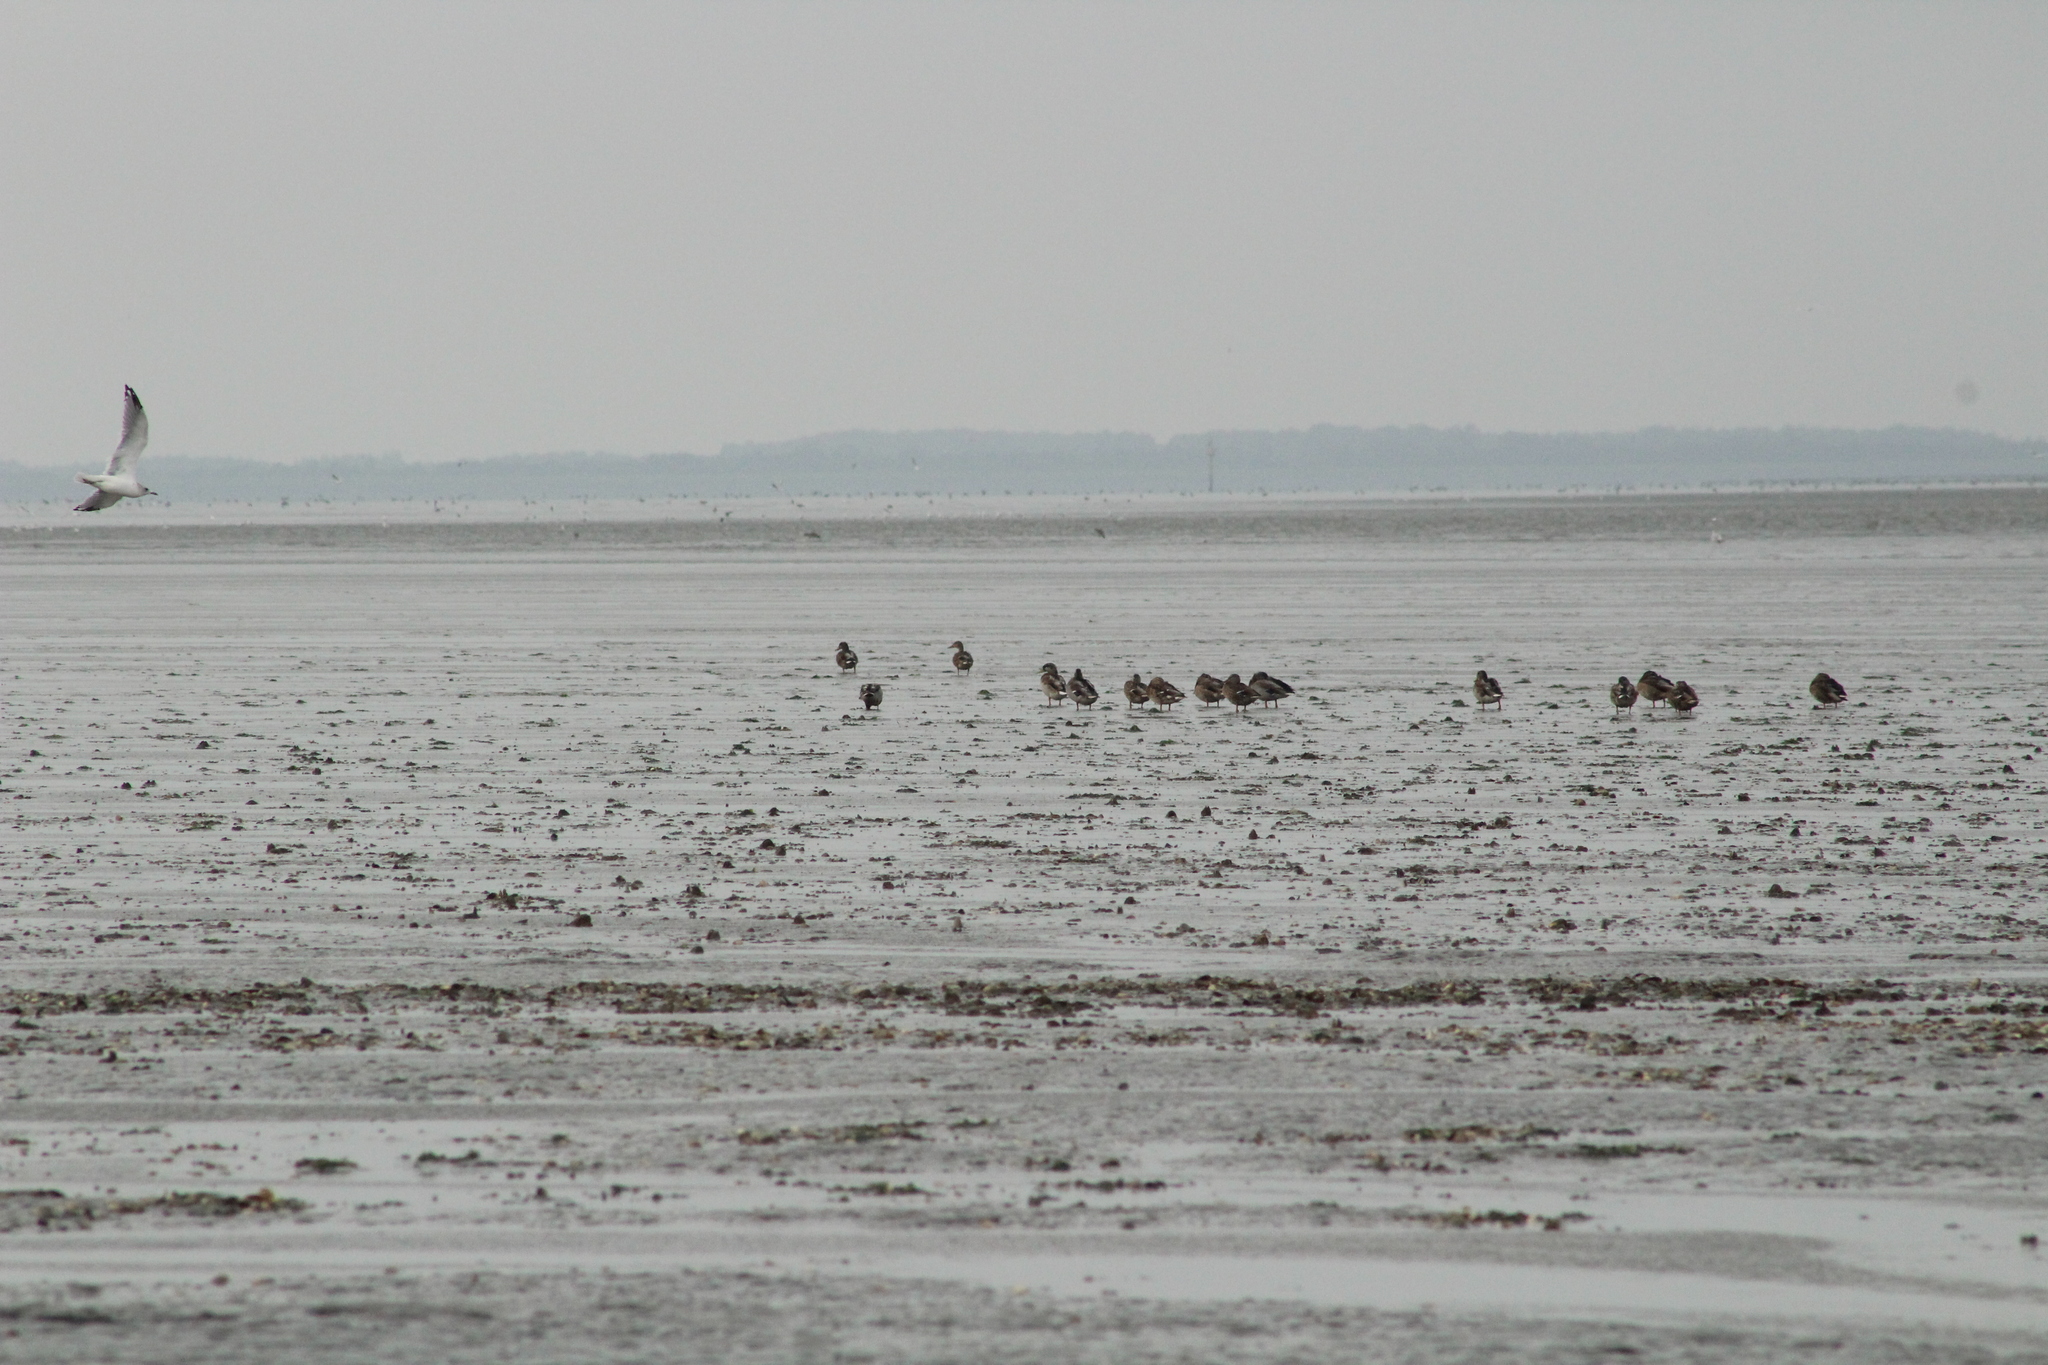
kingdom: Animalia
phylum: Chordata
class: Aves
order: Anseriformes
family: Anatidae
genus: Anas
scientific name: Anas platyrhynchos
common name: Mallard
